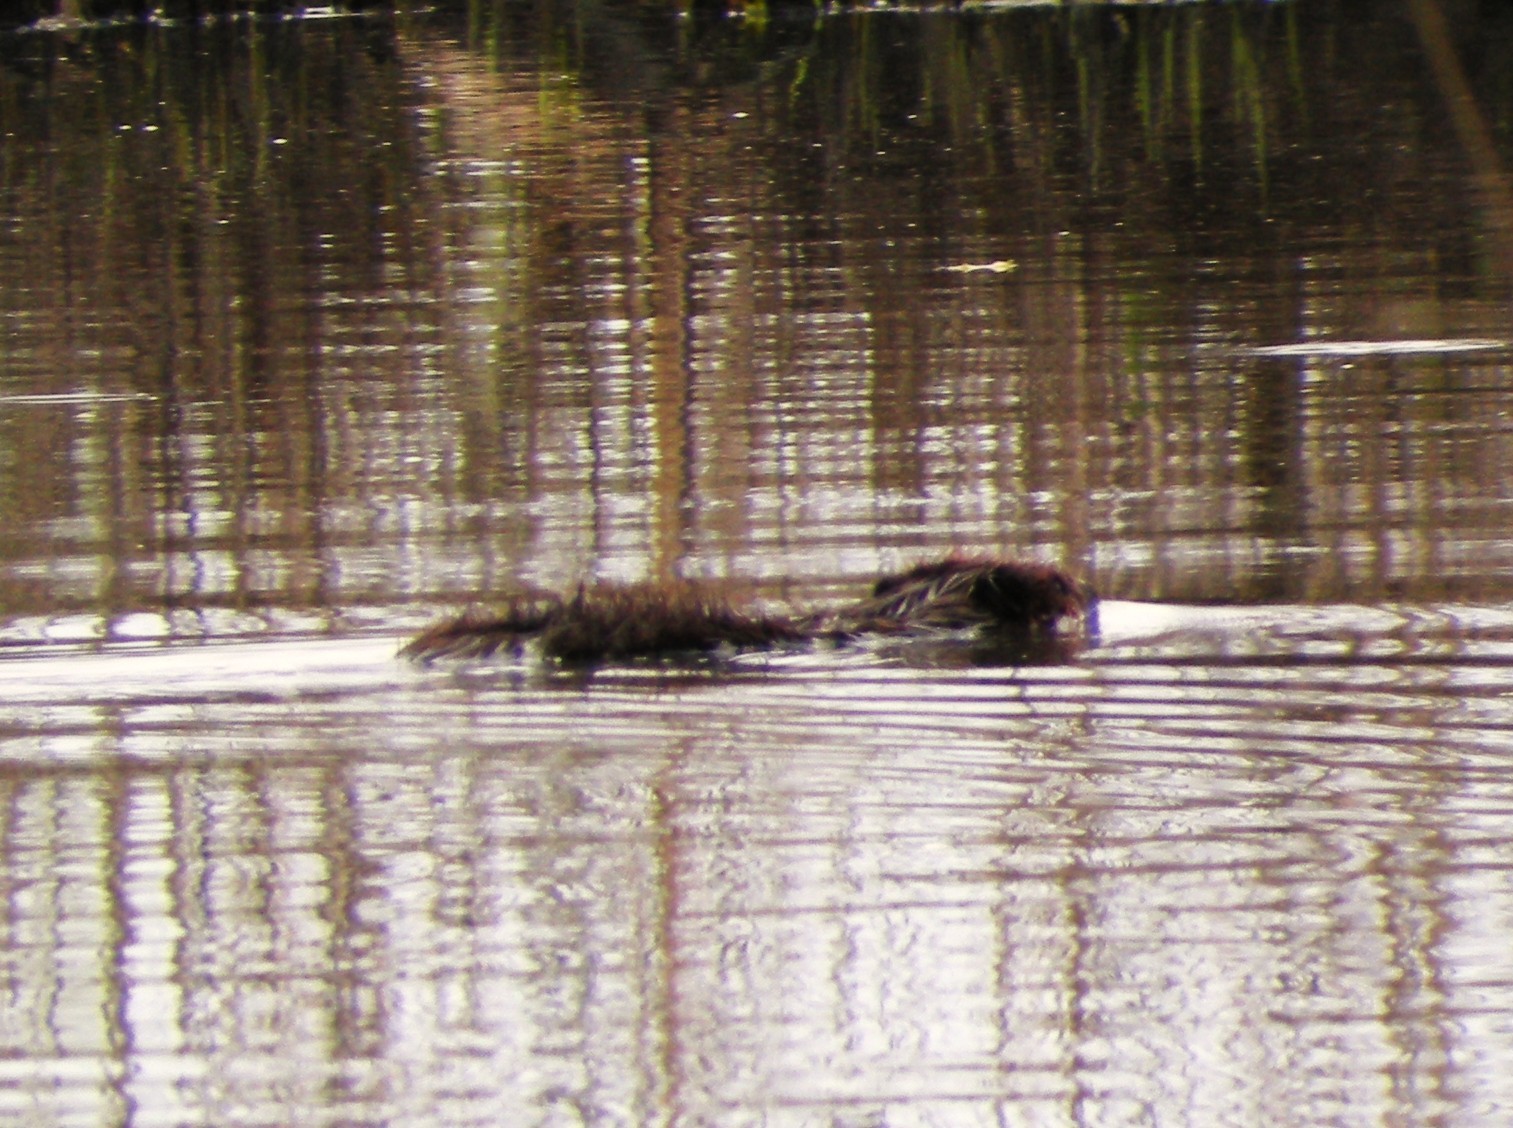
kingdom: Animalia
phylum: Chordata
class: Mammalia
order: Rodentia
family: Cricetidae
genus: Ondatra
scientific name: Ondatra zibethicus
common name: Muskrat
